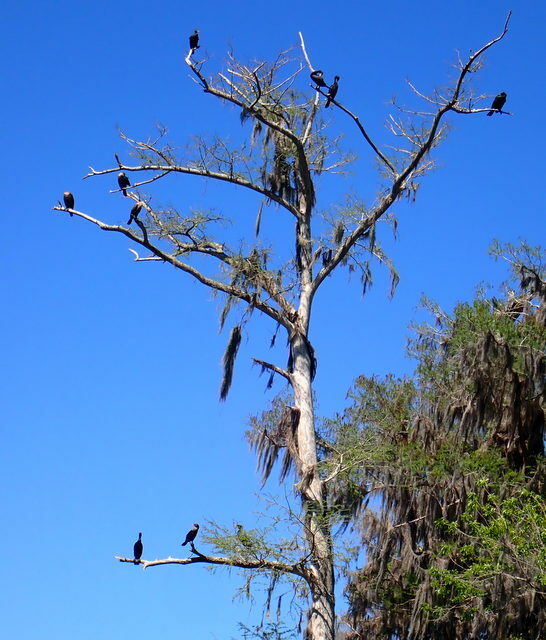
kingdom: Animalia
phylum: Chordata
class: Aves
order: Suliformes
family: Phalacrocoracidae
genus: Phalacrocorax
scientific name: Phalacrocorax auritus
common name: Double-crested cormorant
